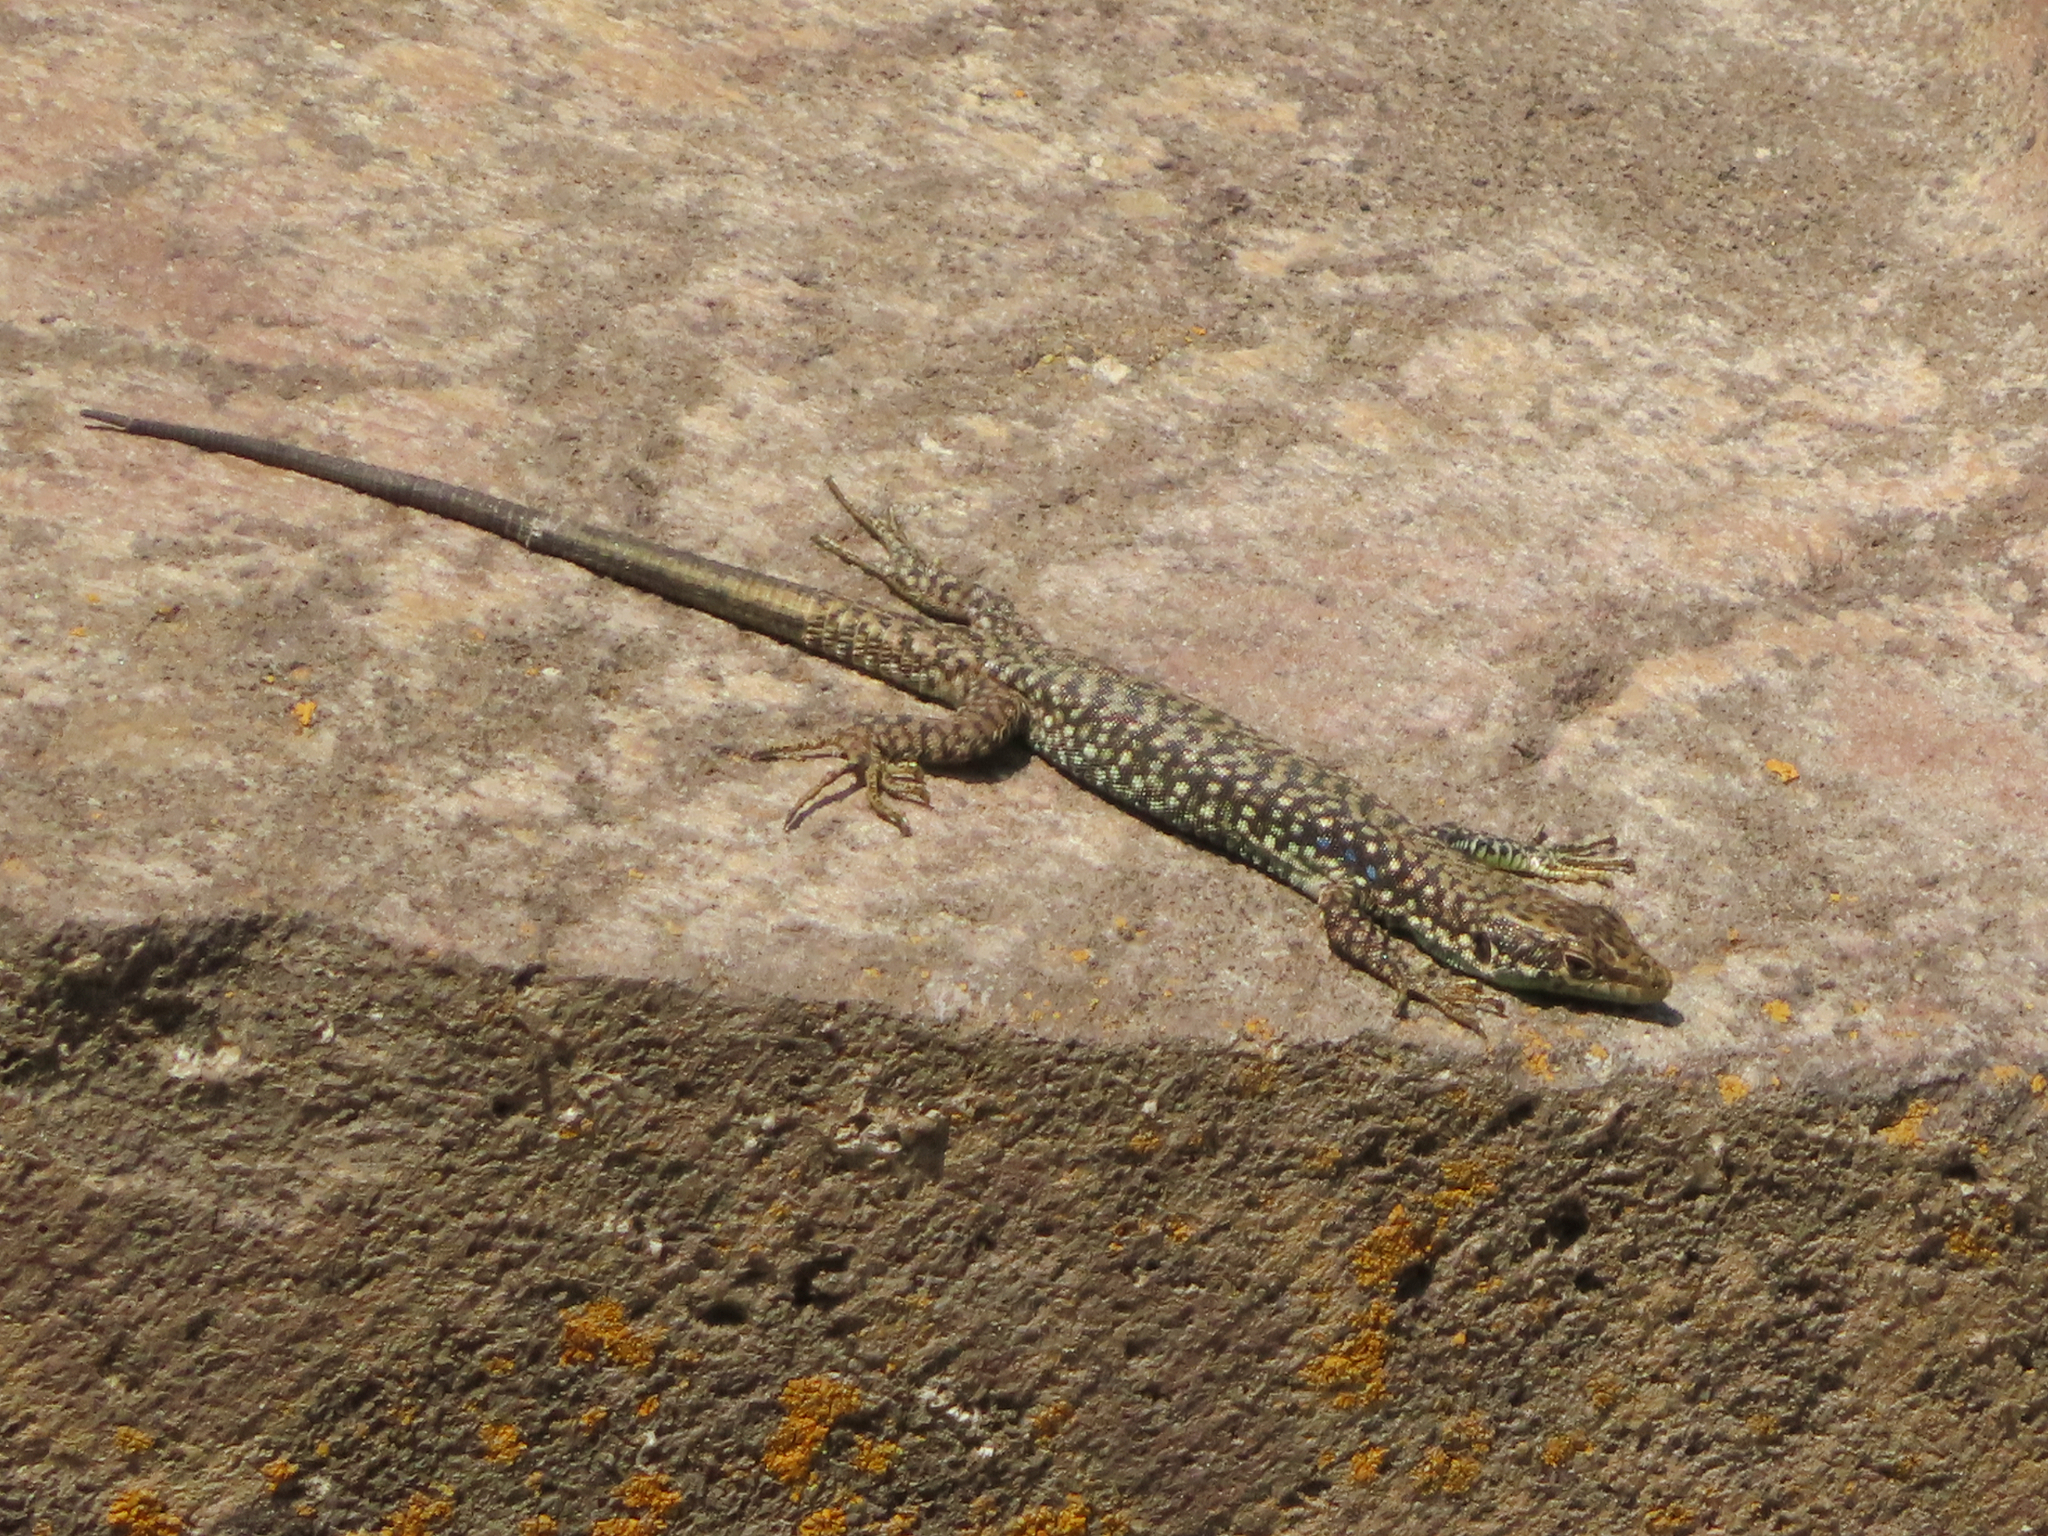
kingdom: Animalia
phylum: Chordata
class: Squamata
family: Lacertidae
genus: Darevskia
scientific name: Darevskia
